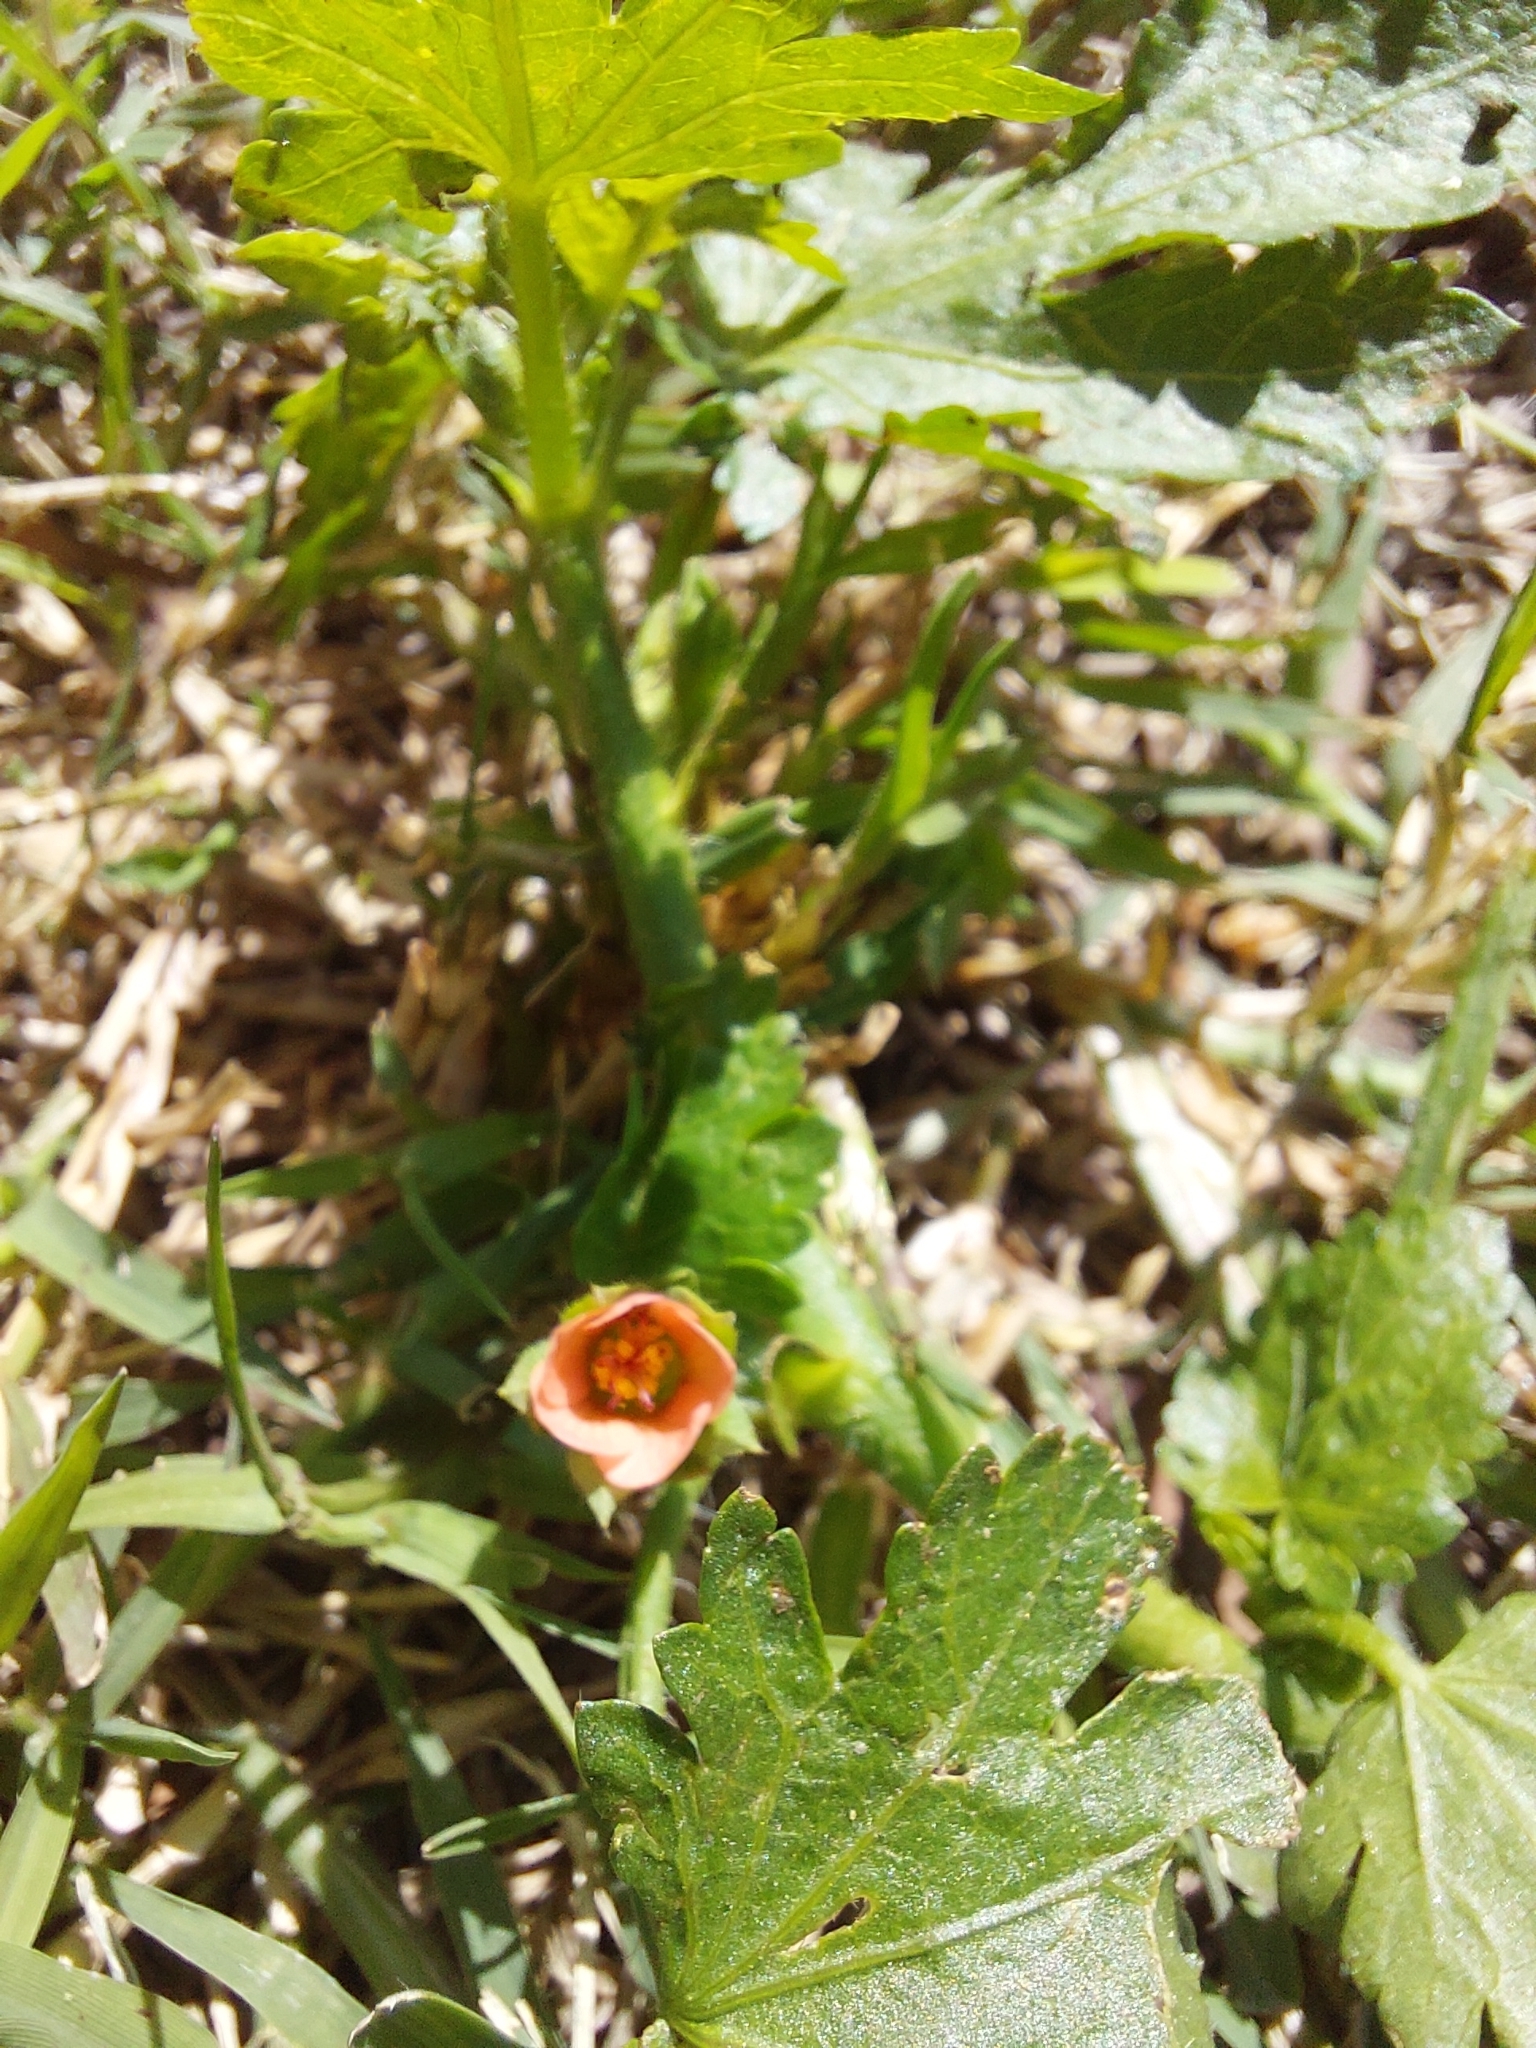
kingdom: Plantae
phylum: Tracheophyta
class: Magnoliopsida
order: Malvales
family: Malvaceae
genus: Modiola
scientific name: Modiola caroliniana
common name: Carolina bristlemallow
